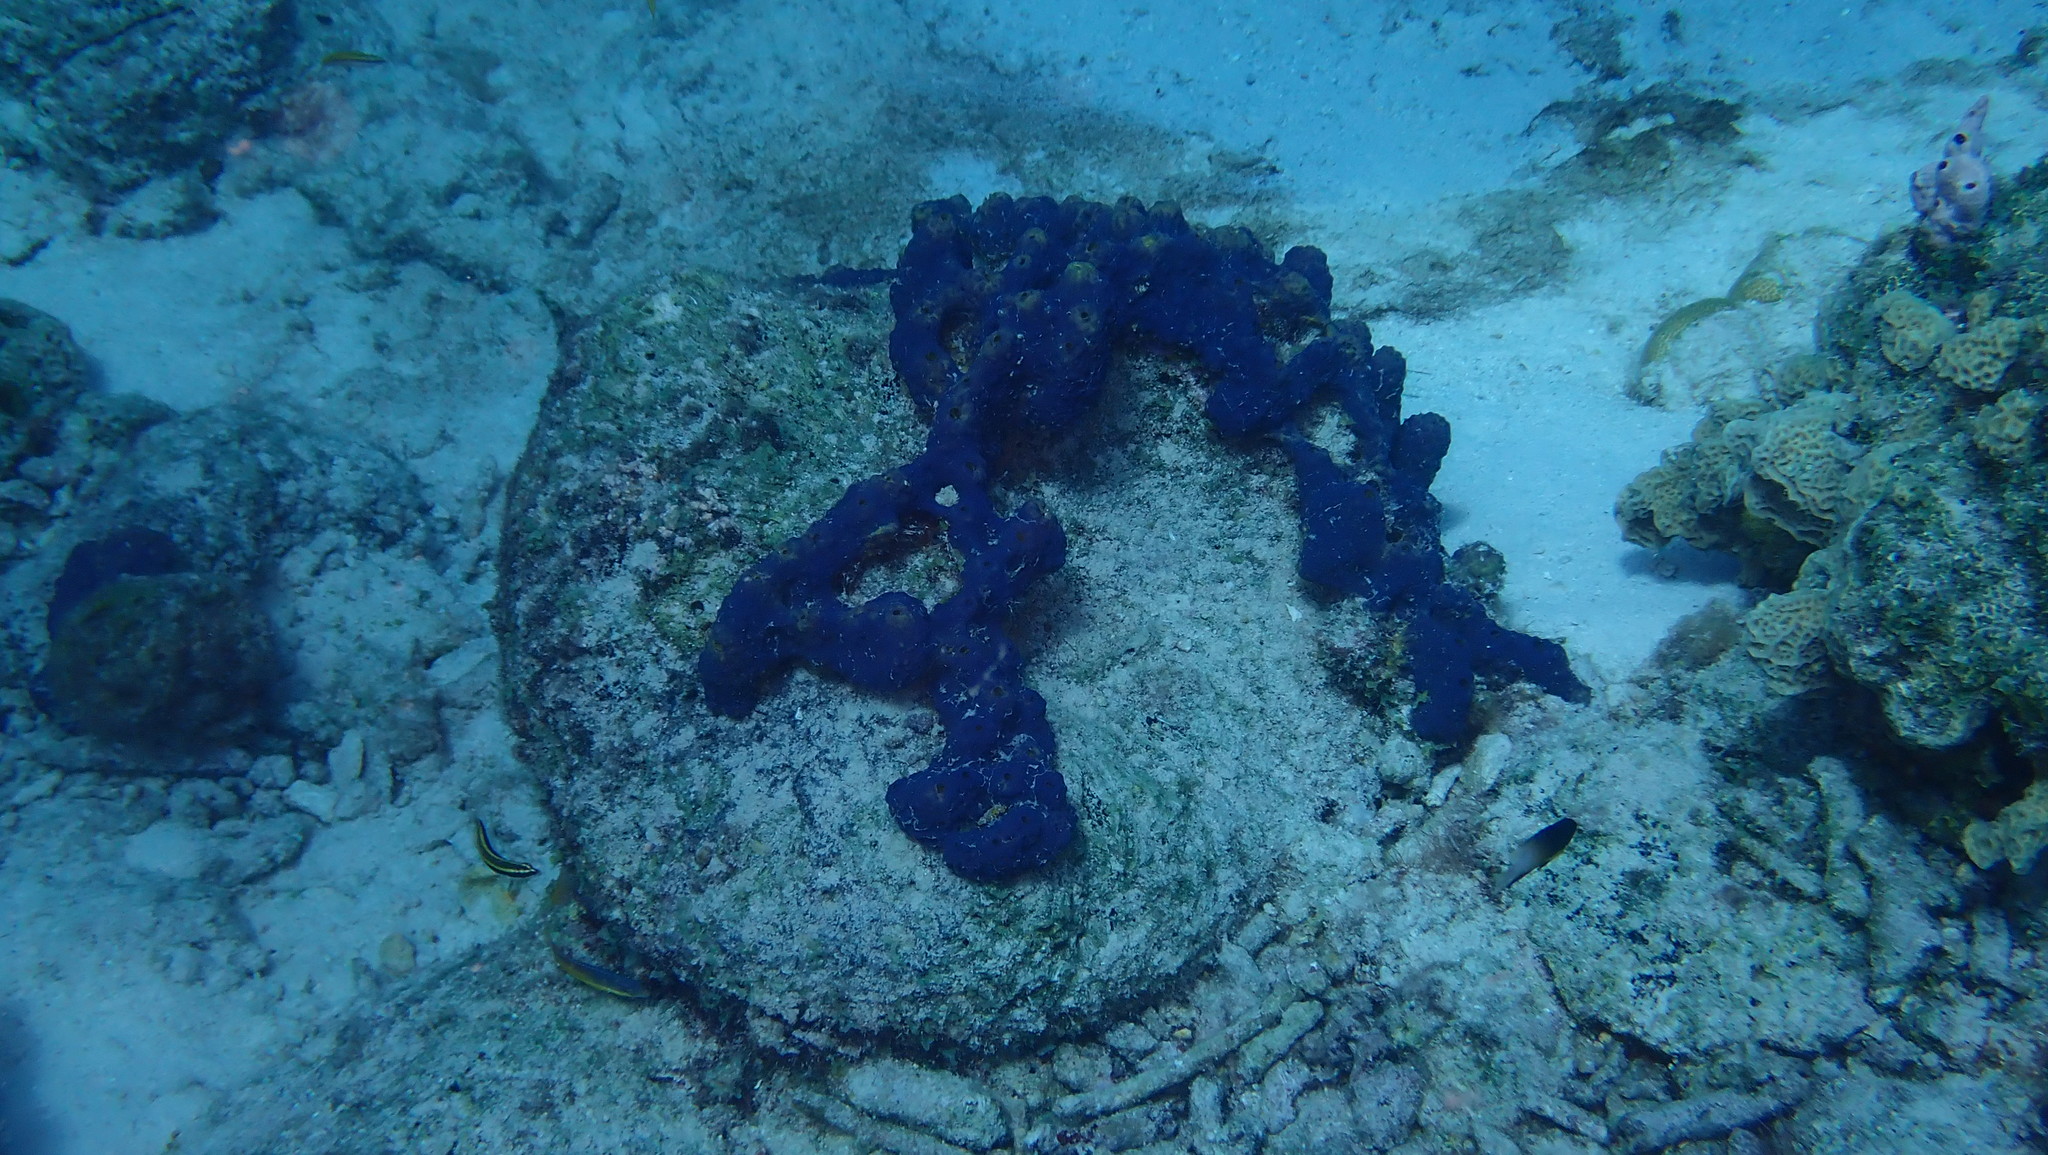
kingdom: Animalia
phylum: Porifera
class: Demospongiae
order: Verongiida
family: Aplysinidae
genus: Aiolochroia
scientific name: Aiolochroia crassa
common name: Branching tube sponge
